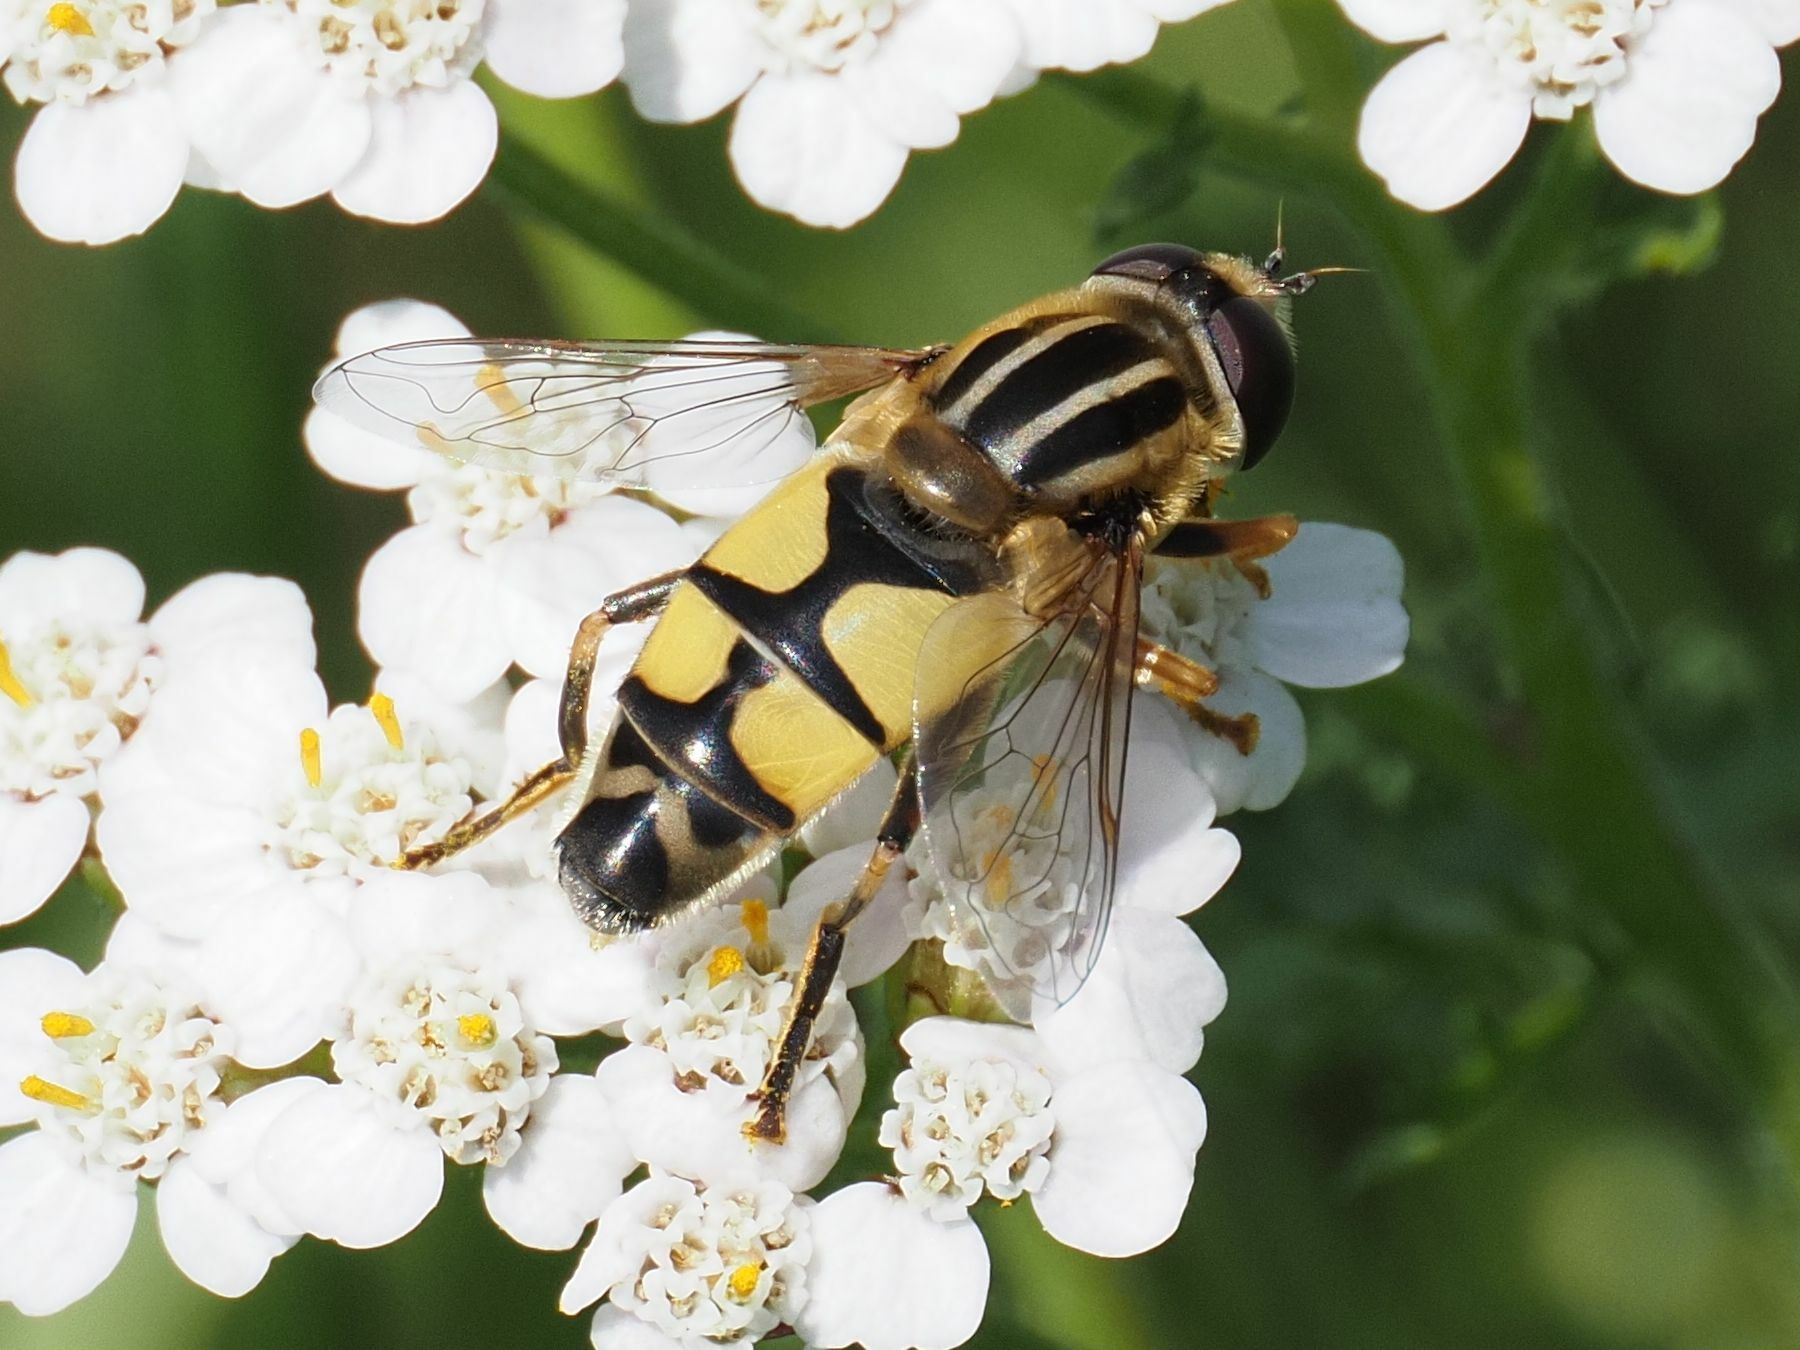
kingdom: Animalia
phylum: Arthropoda
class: Insecta
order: Diptera
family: Syrphidae
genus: Helophilus
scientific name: Helophilus trivittatus
